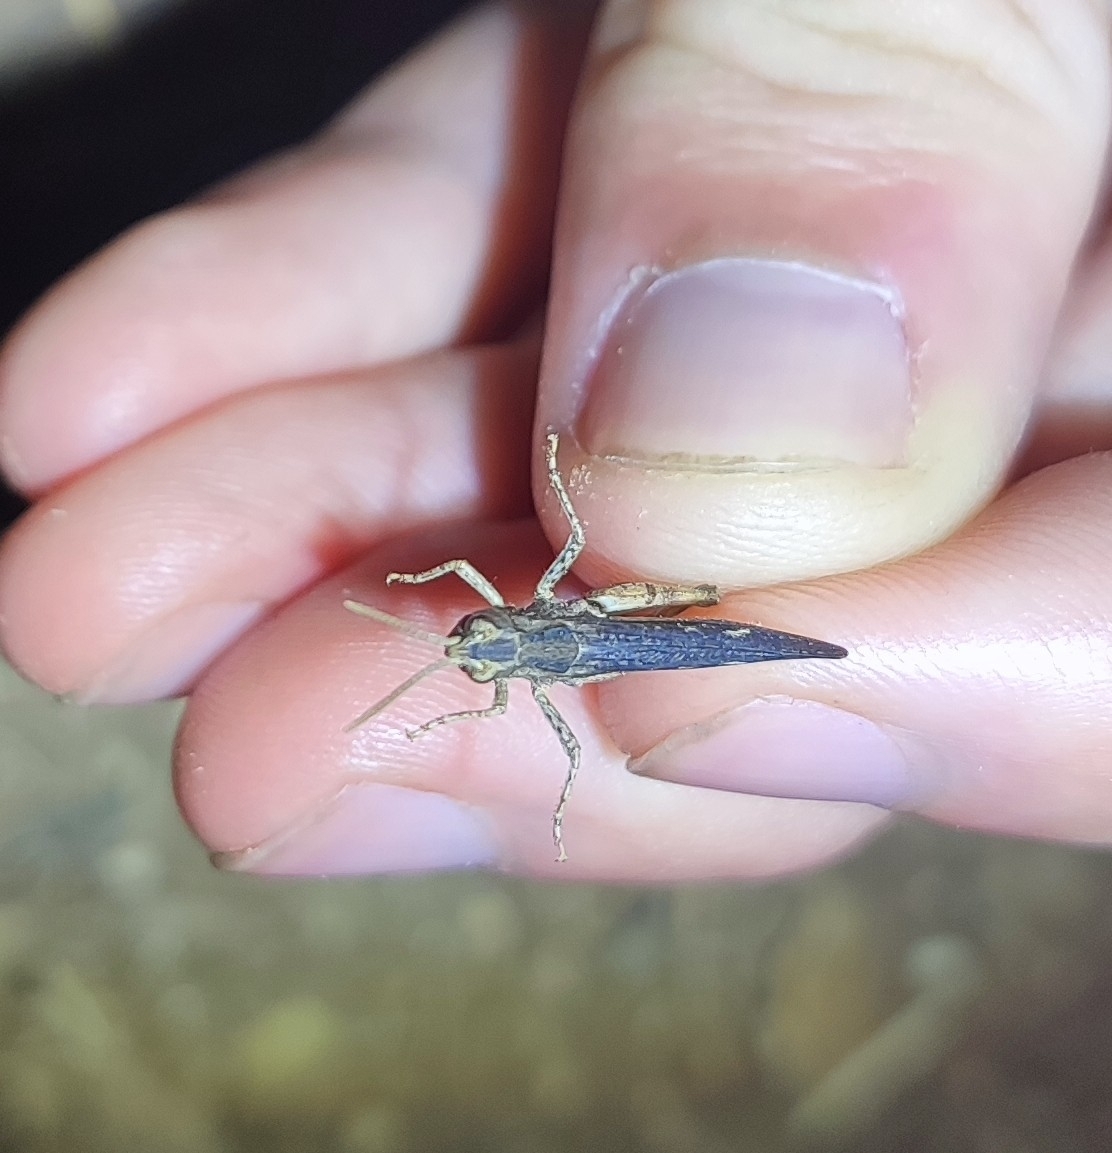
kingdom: Animalia
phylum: Arthropoda
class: Insecta
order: Orthoptera
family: Acrididae
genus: Omocestus
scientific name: Omocestus raymondi
